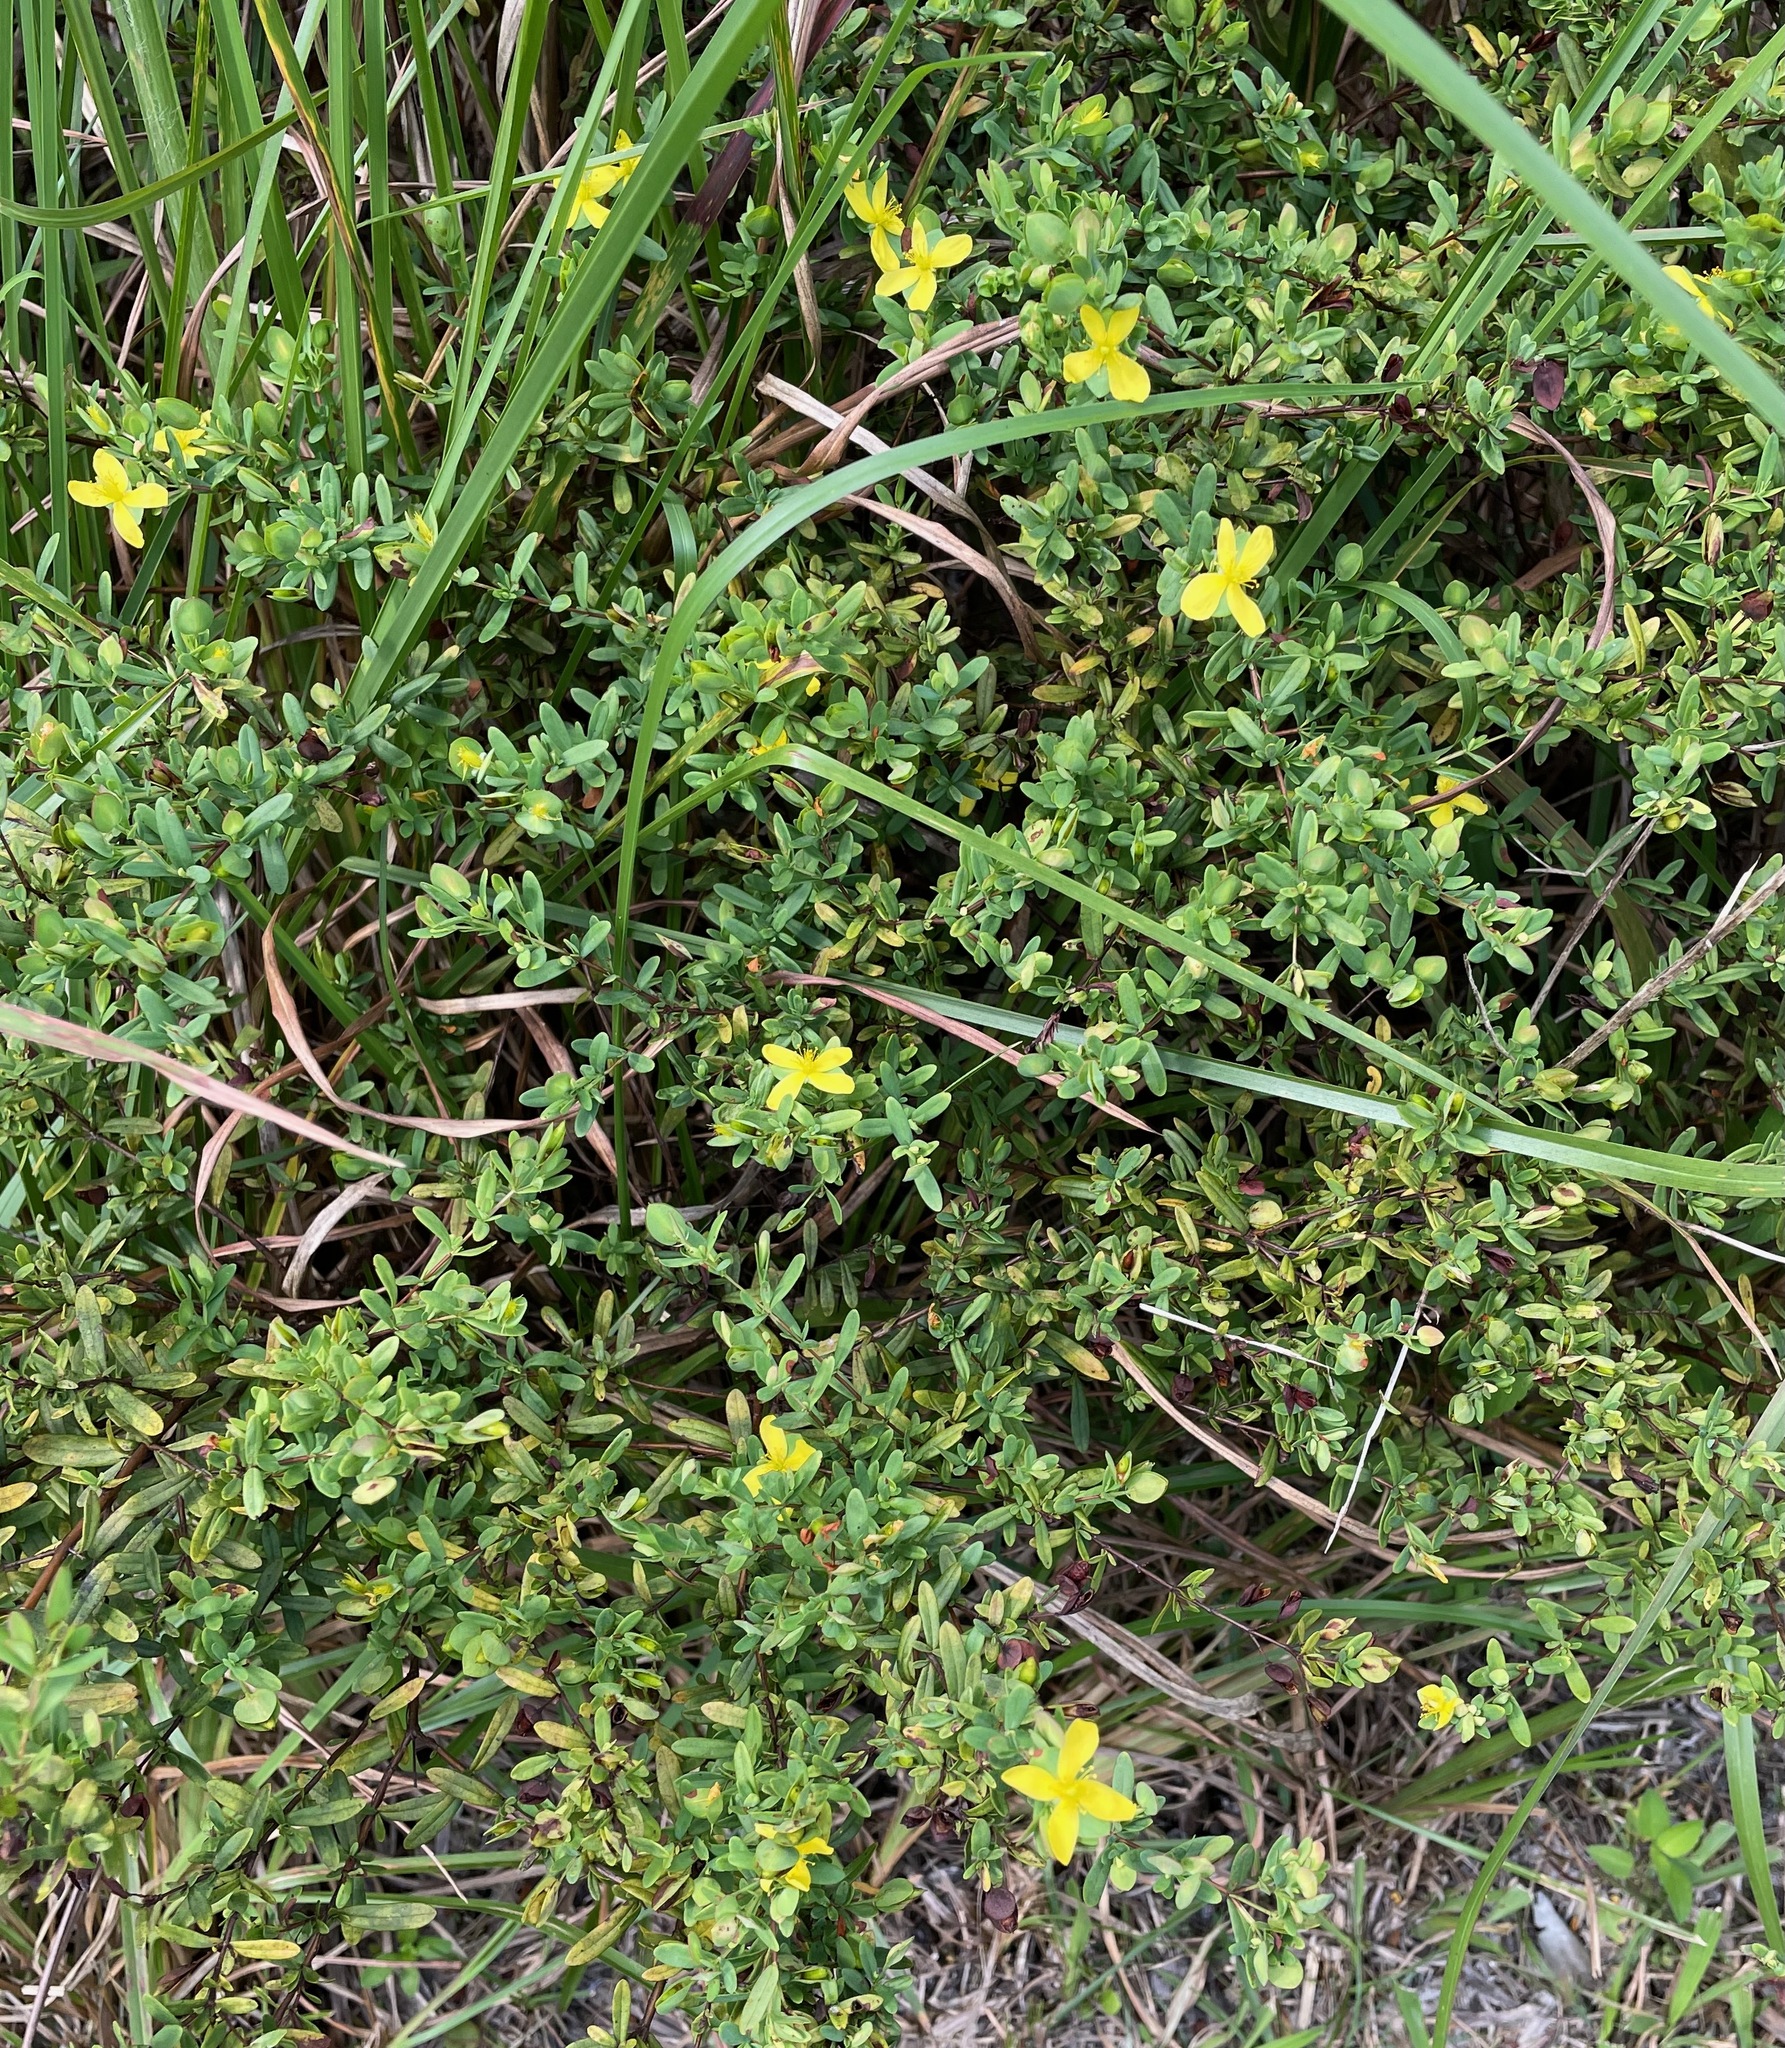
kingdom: Plantae
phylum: Tracheophyta
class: Magnoliopsida
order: Malpighiales
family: Hypericaceae
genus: Hypericum
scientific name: Hypericum hypericoides
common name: St. andrew's cross
